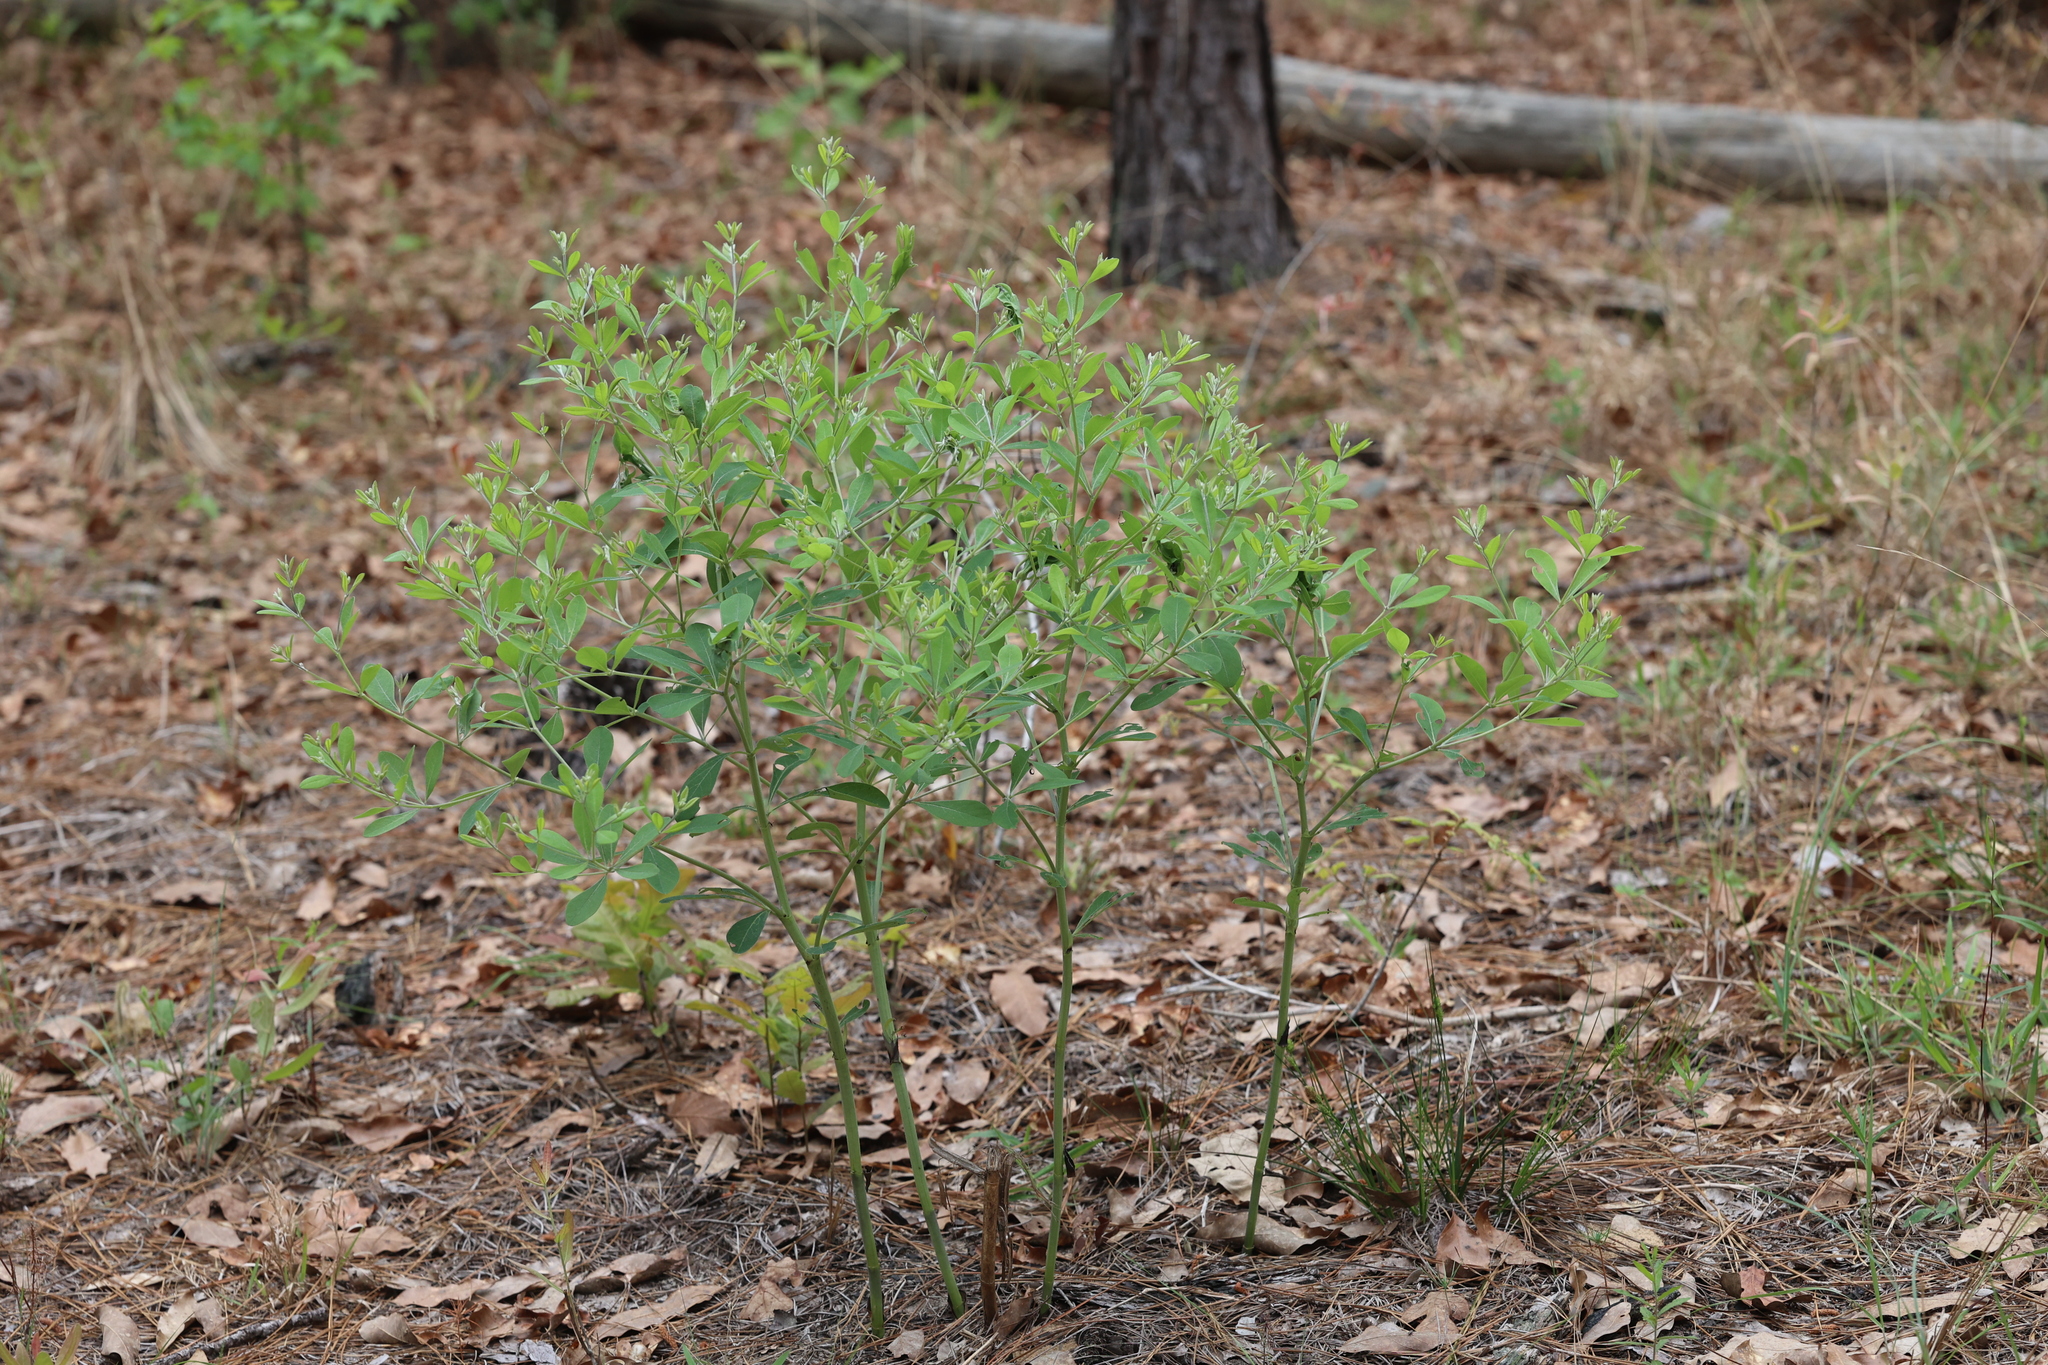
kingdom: Plantae
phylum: Tracheophyta
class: Magnoliopsida
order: Malpighiales
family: Euphorbiaceae
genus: Croton
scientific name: Croton argyranthemus
